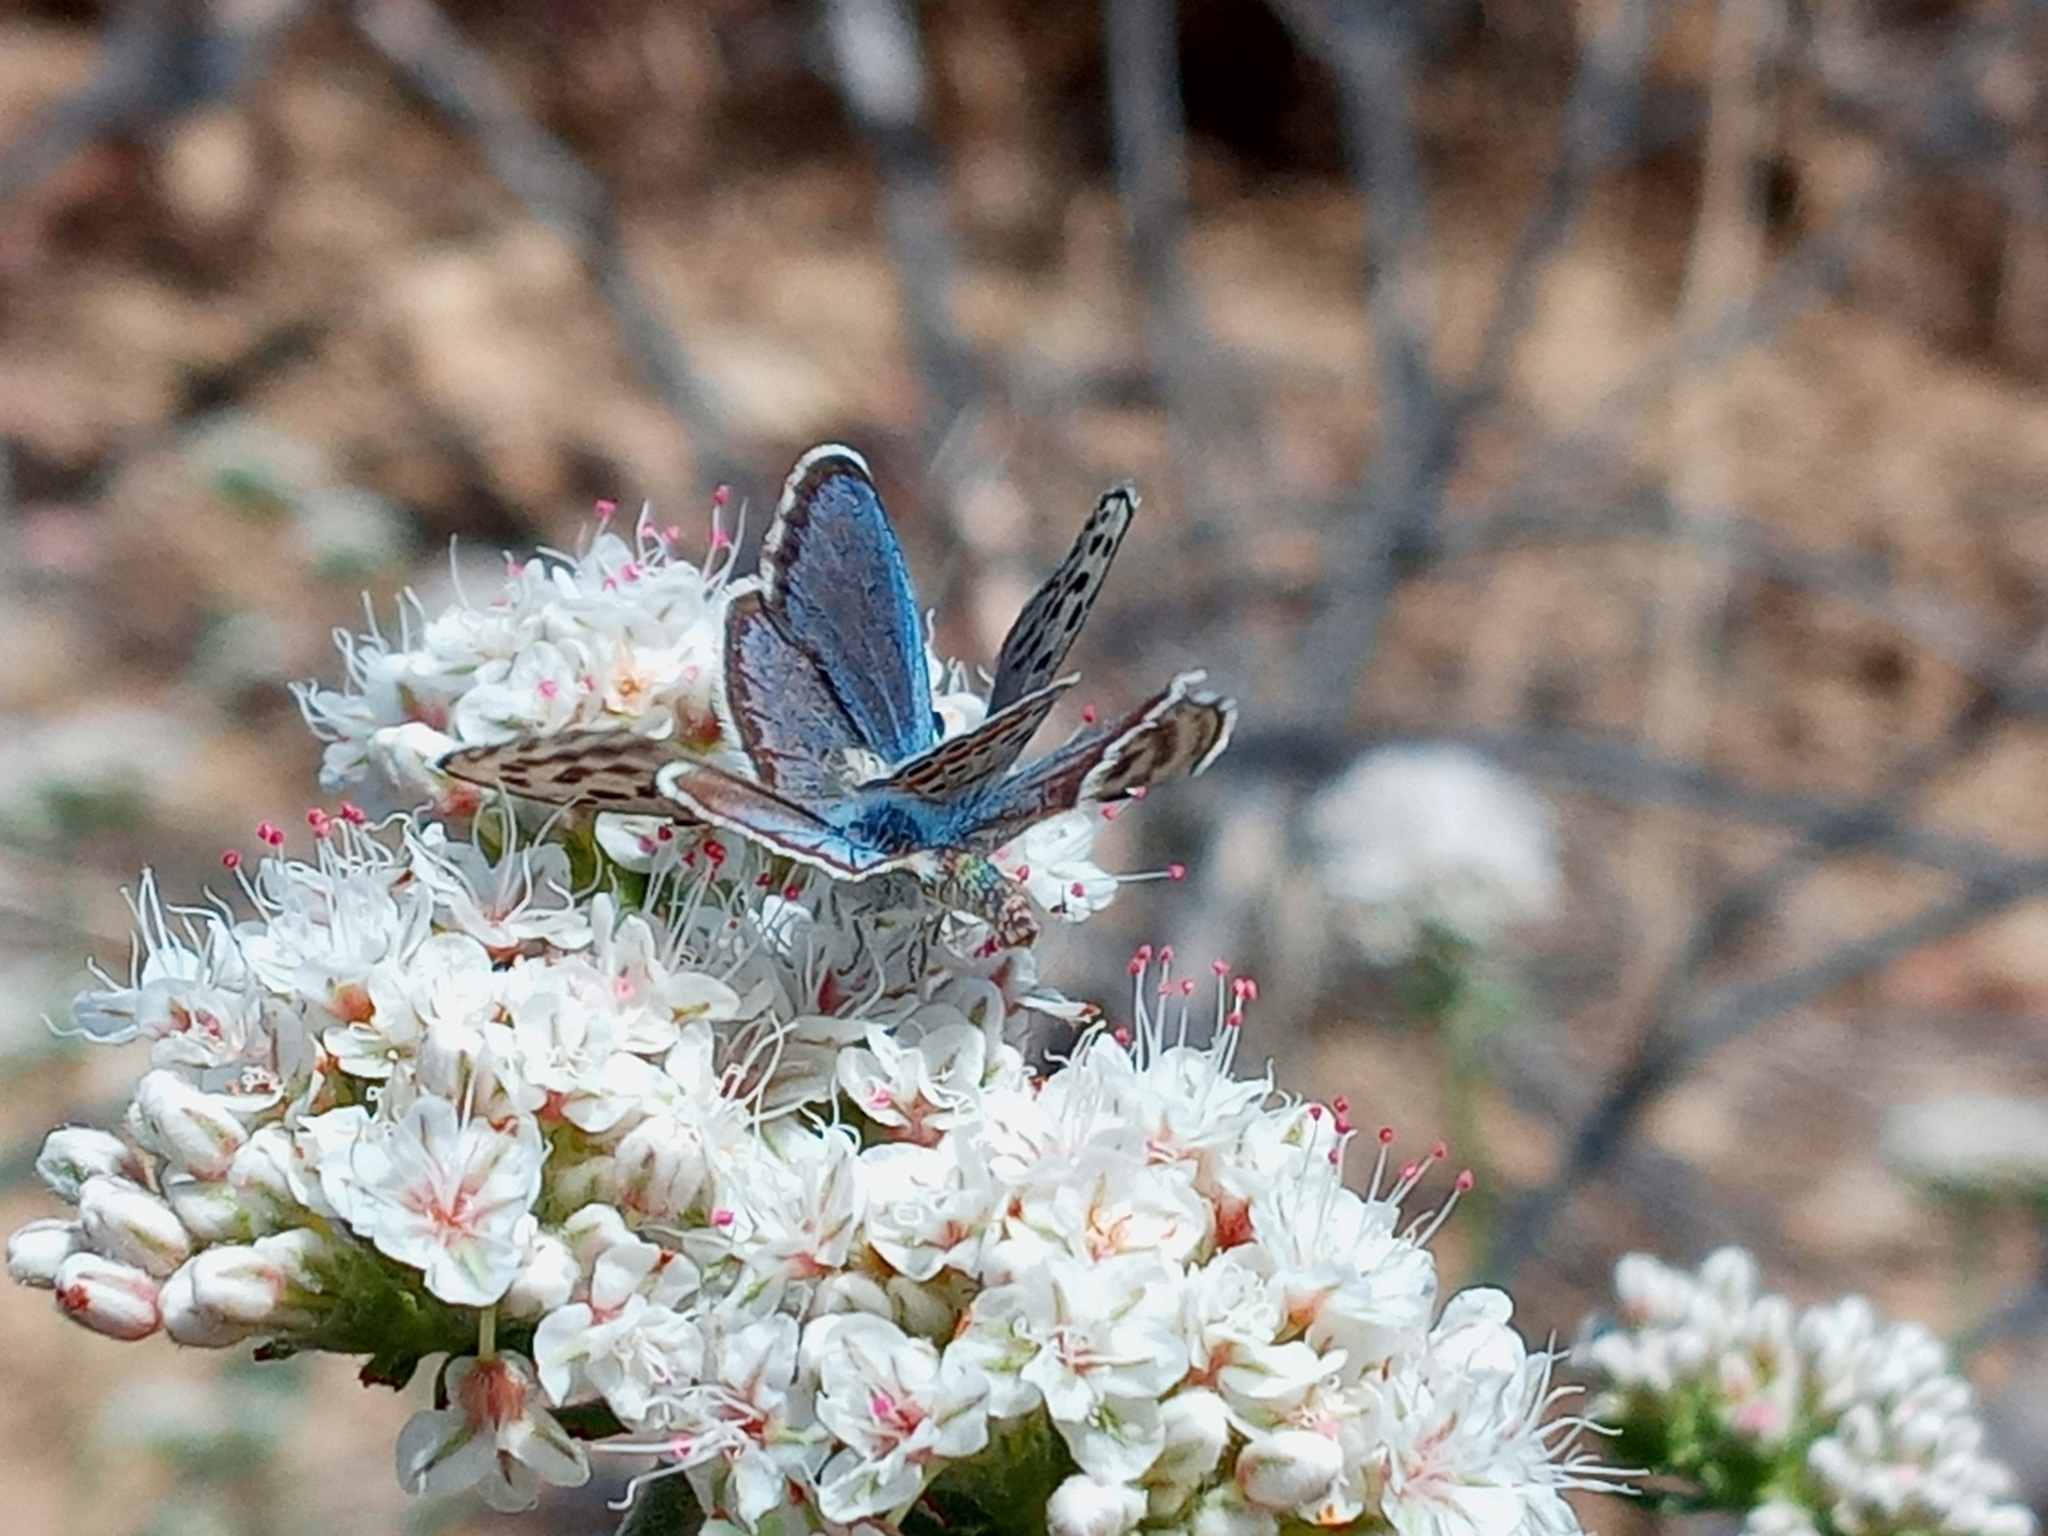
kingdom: Animalia
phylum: Arthropoda
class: Insecta
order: Lepidoptera
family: Lycaenidae
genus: Philotes
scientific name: Philotes bernardino
